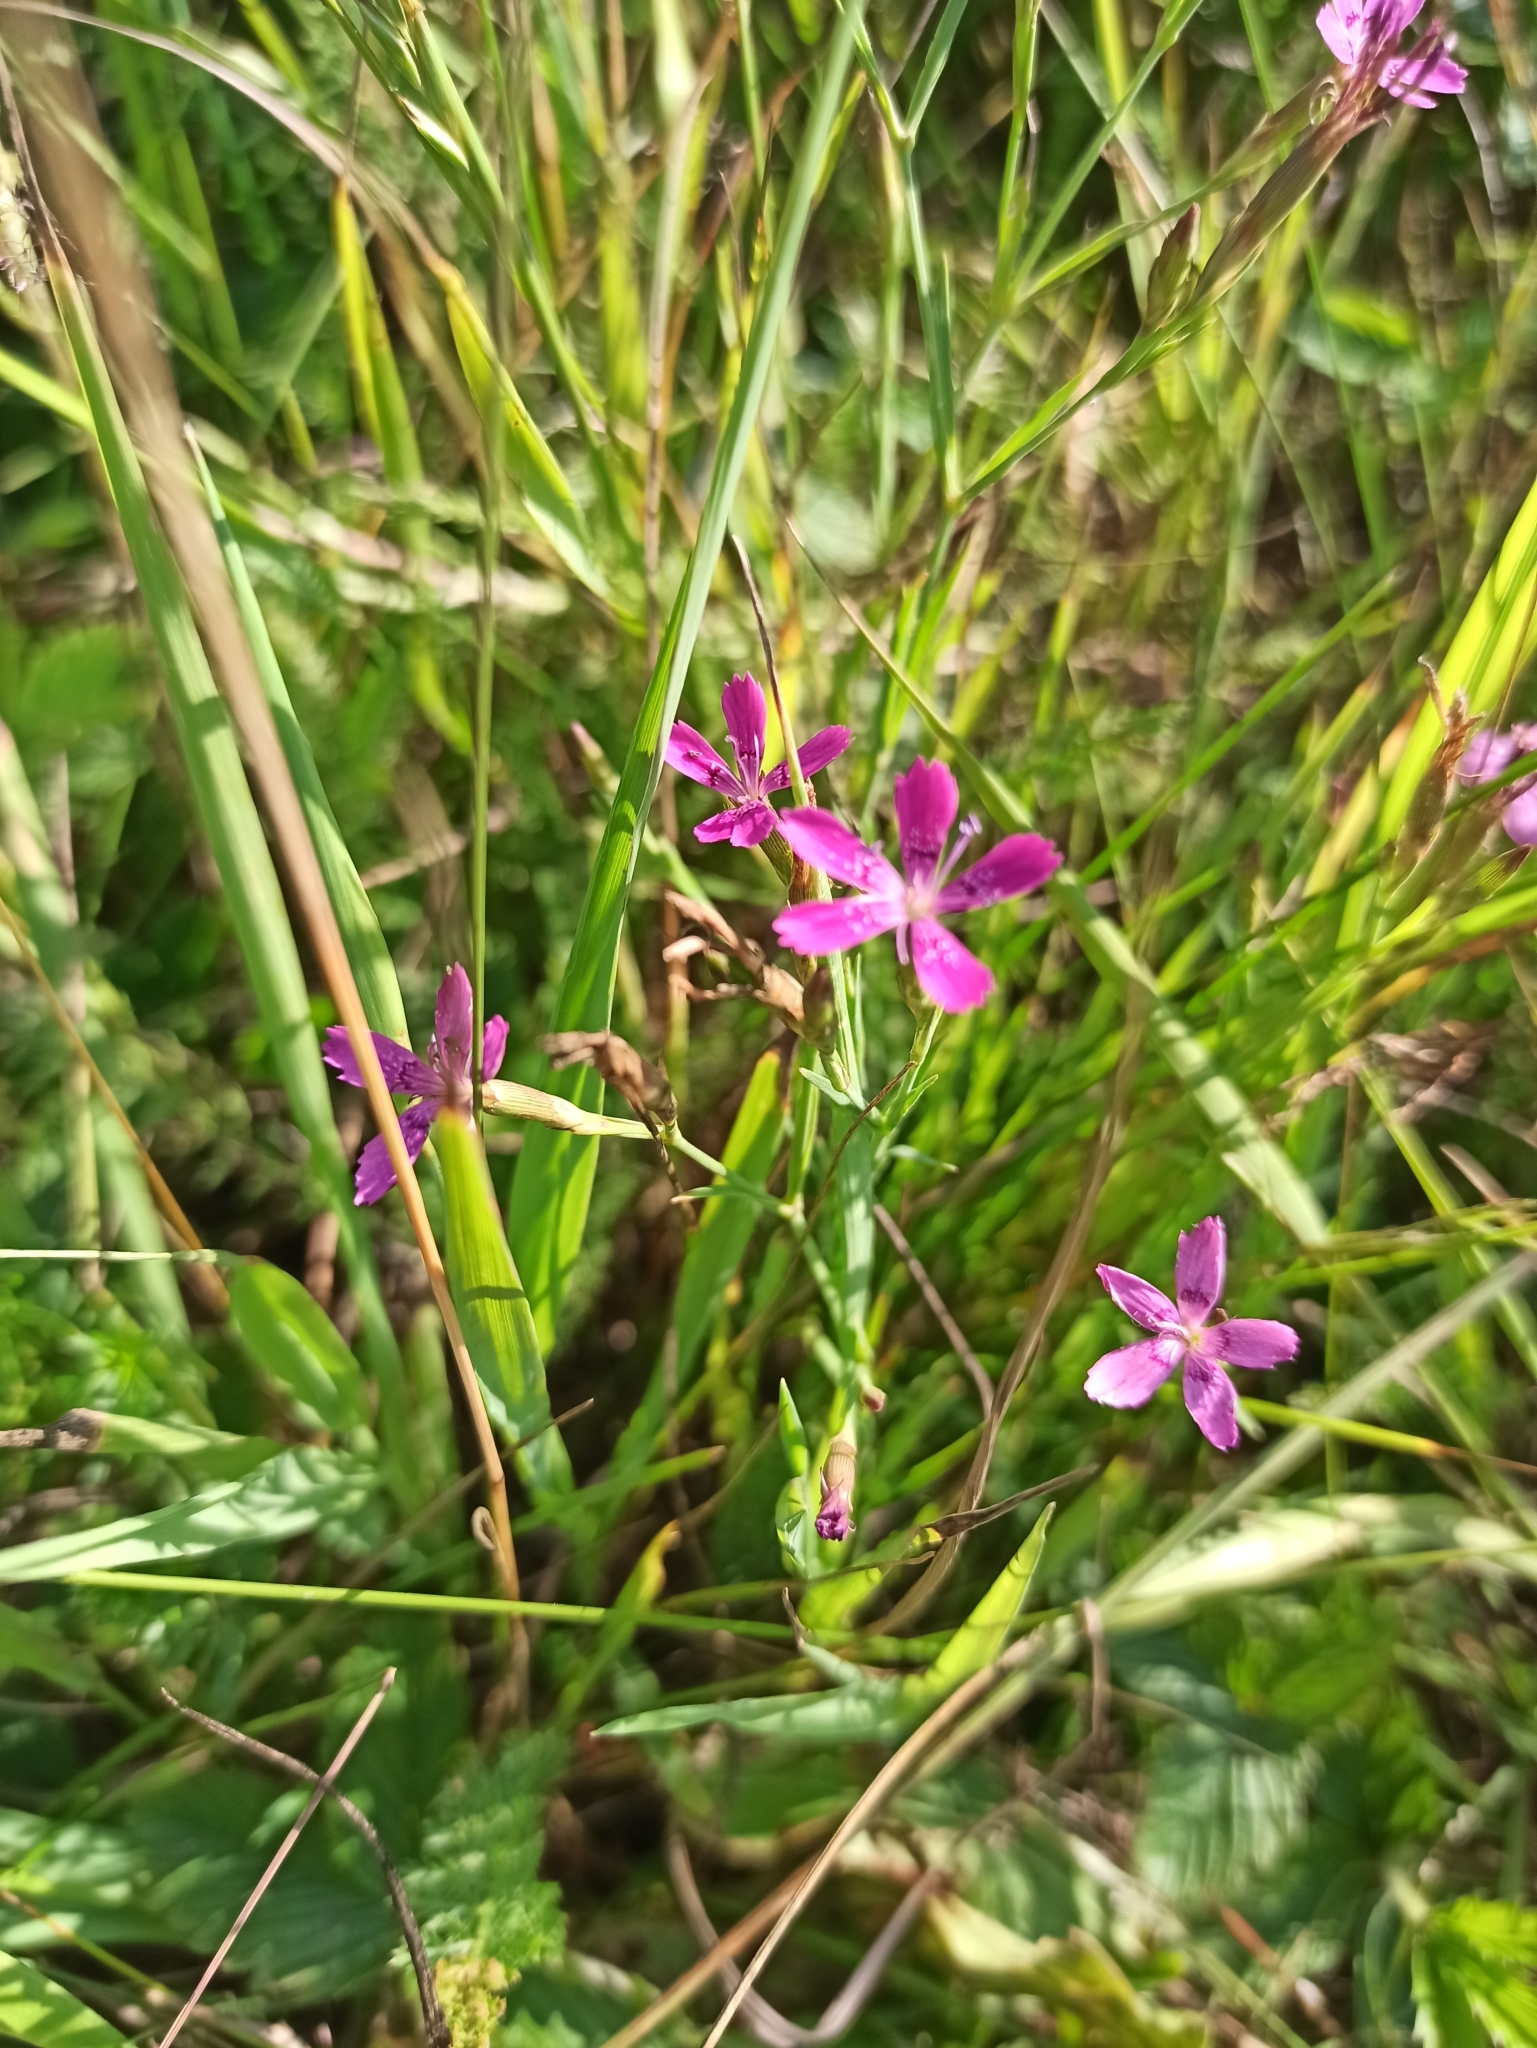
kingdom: Plantae
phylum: Tracheophyta
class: Magnoliopsida
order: Caryophyllales
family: Caryophyllaceae
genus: Dianthus
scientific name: Dianthus deltoides
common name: Maiden pink
